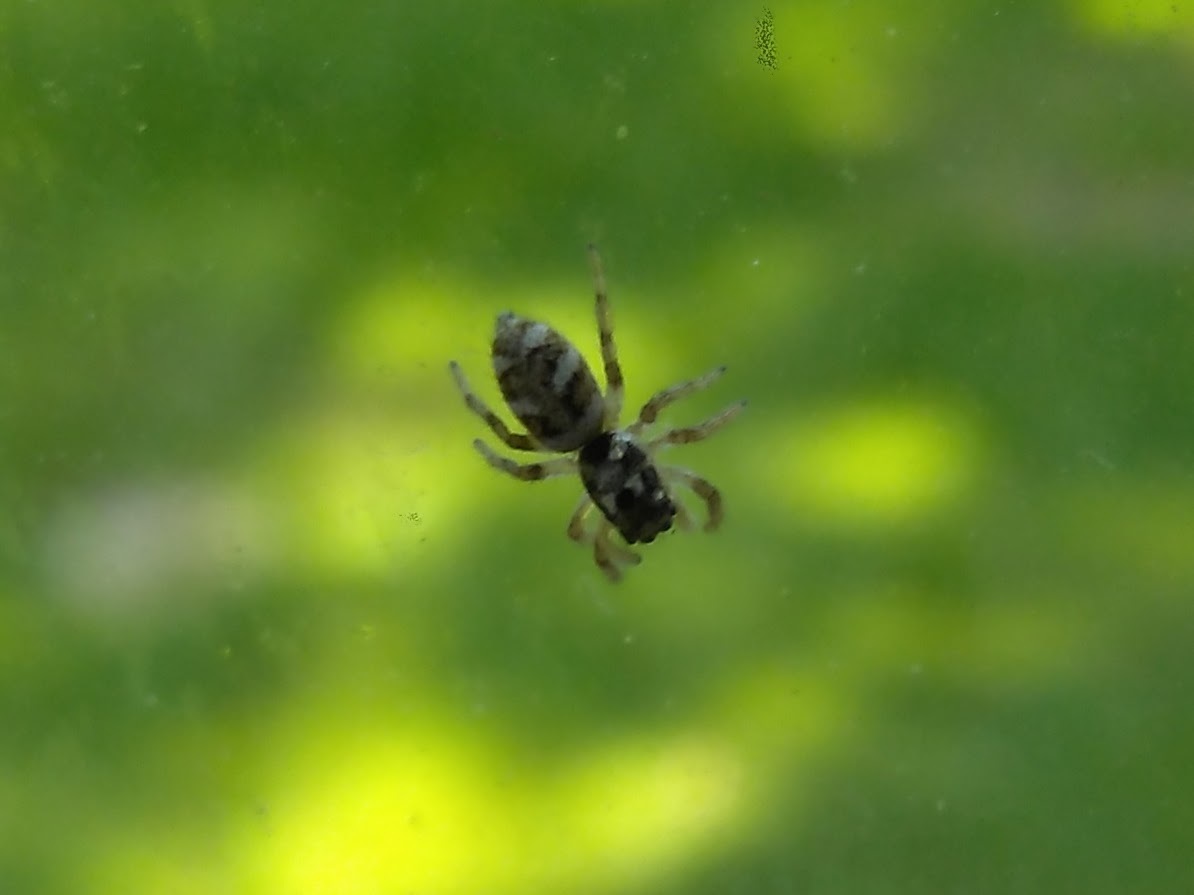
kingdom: Animalia
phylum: Arthropoda
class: Arachnida
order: Araneae
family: Salticidae
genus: Salticus
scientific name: Salticus scenicus
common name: Zebra jumper
